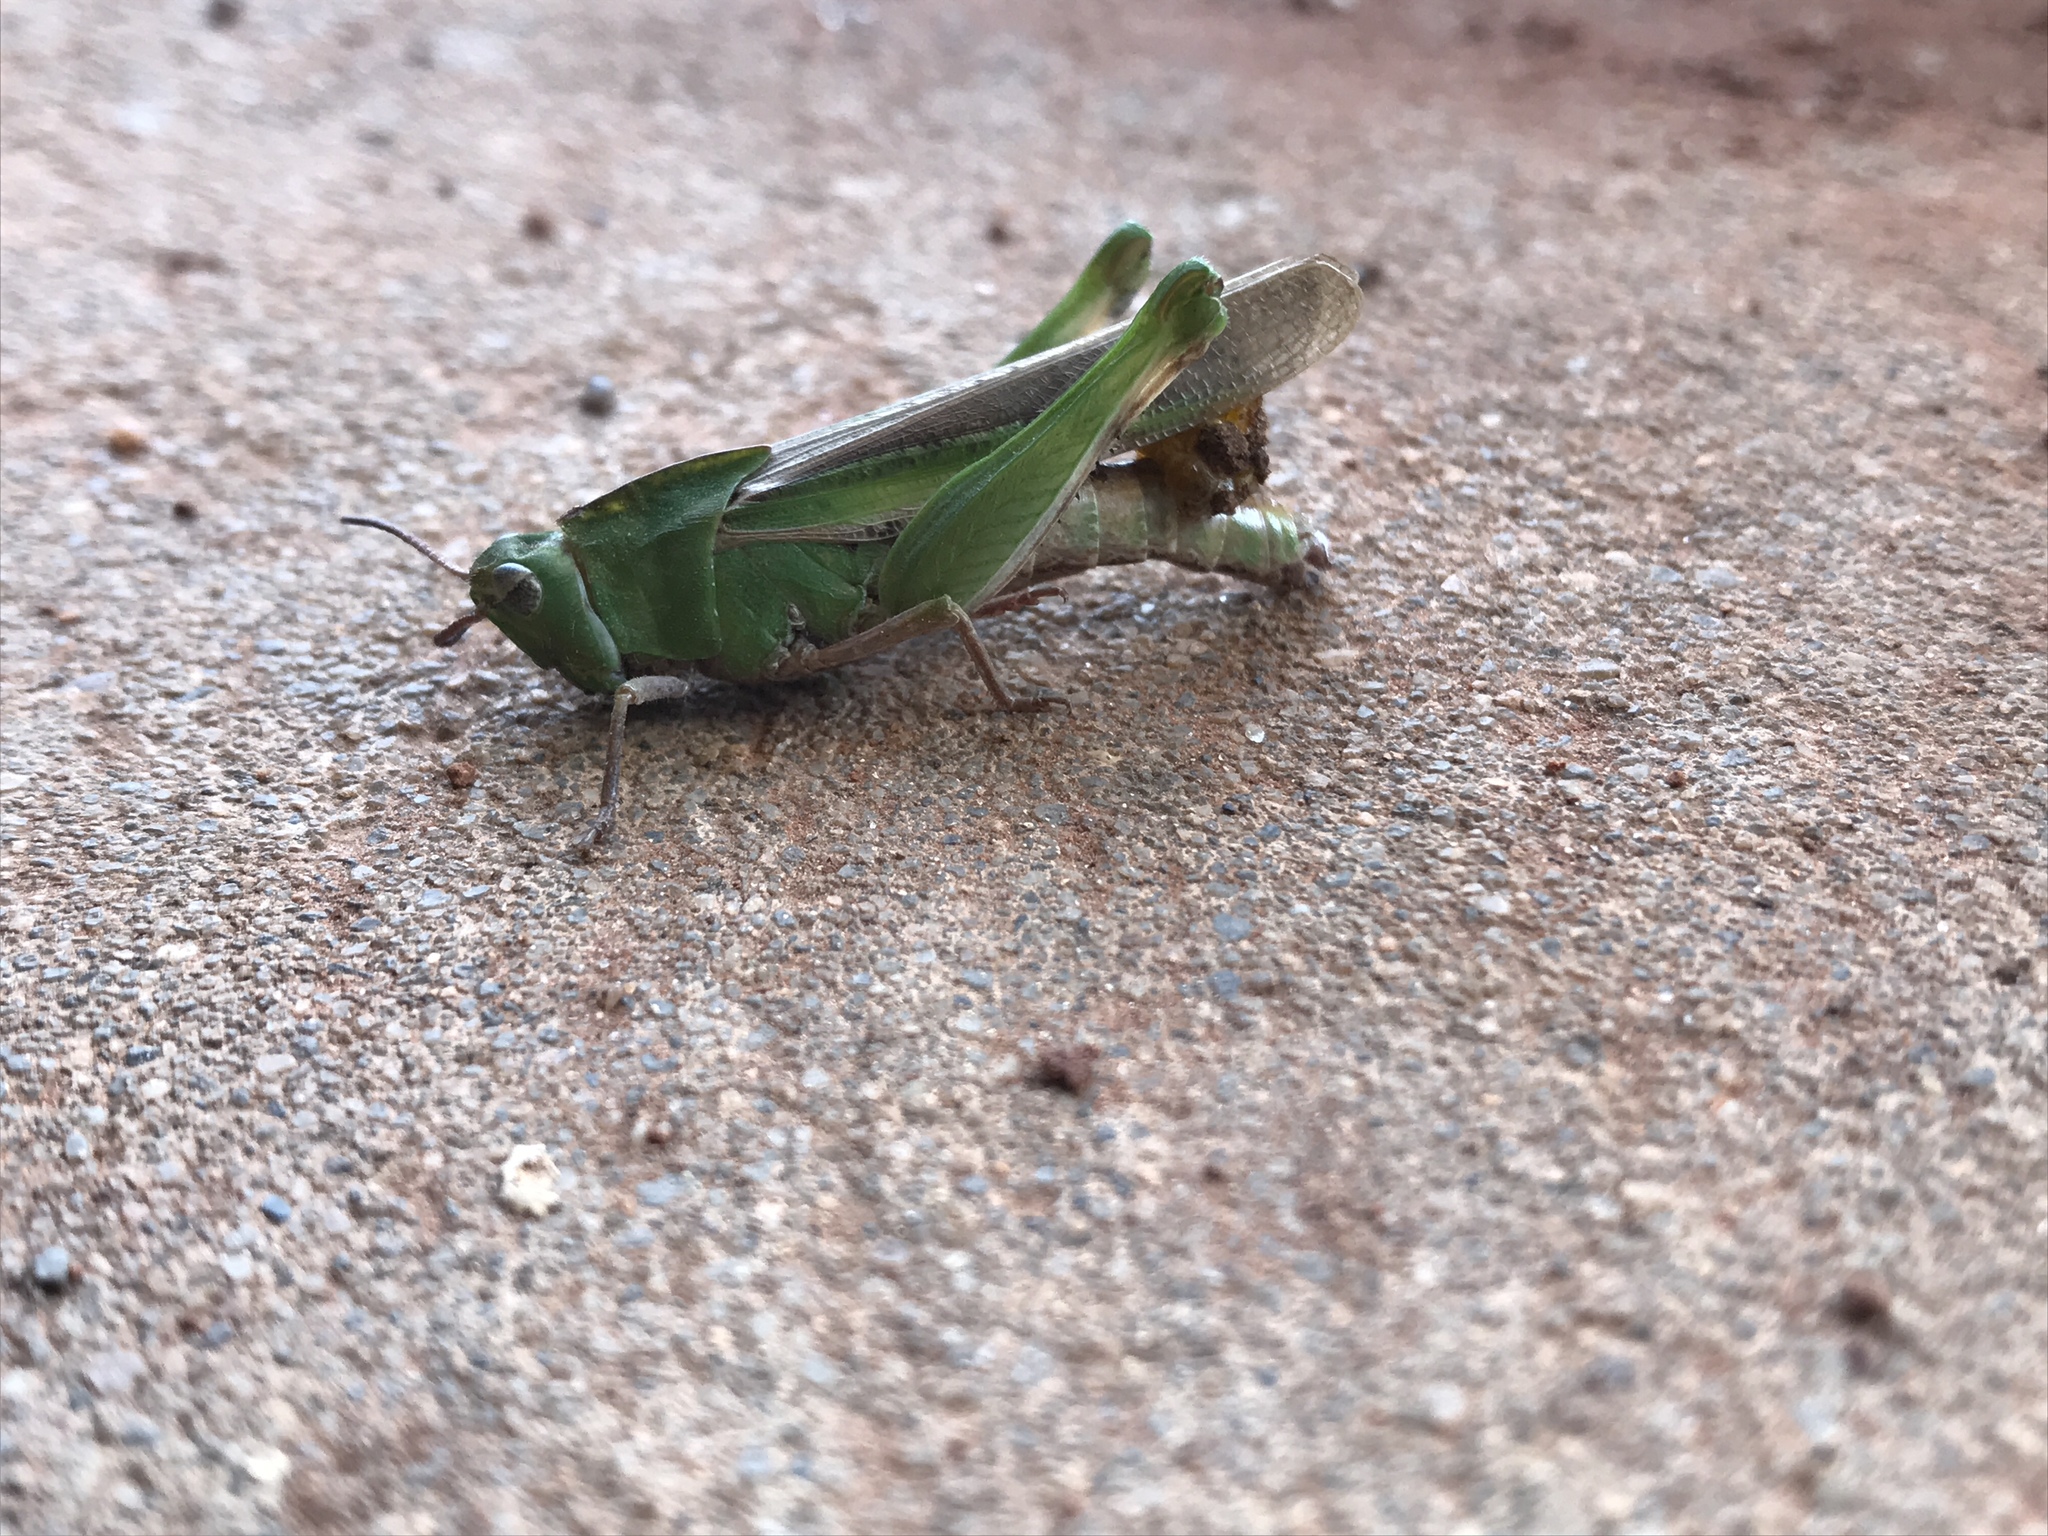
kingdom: Animalia
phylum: Arthropoda
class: Insecta
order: Orthoptera
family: Acrididae
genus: Chortophaga
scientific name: Chortophaga viridifasciata
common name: Green-striped grasshopper
